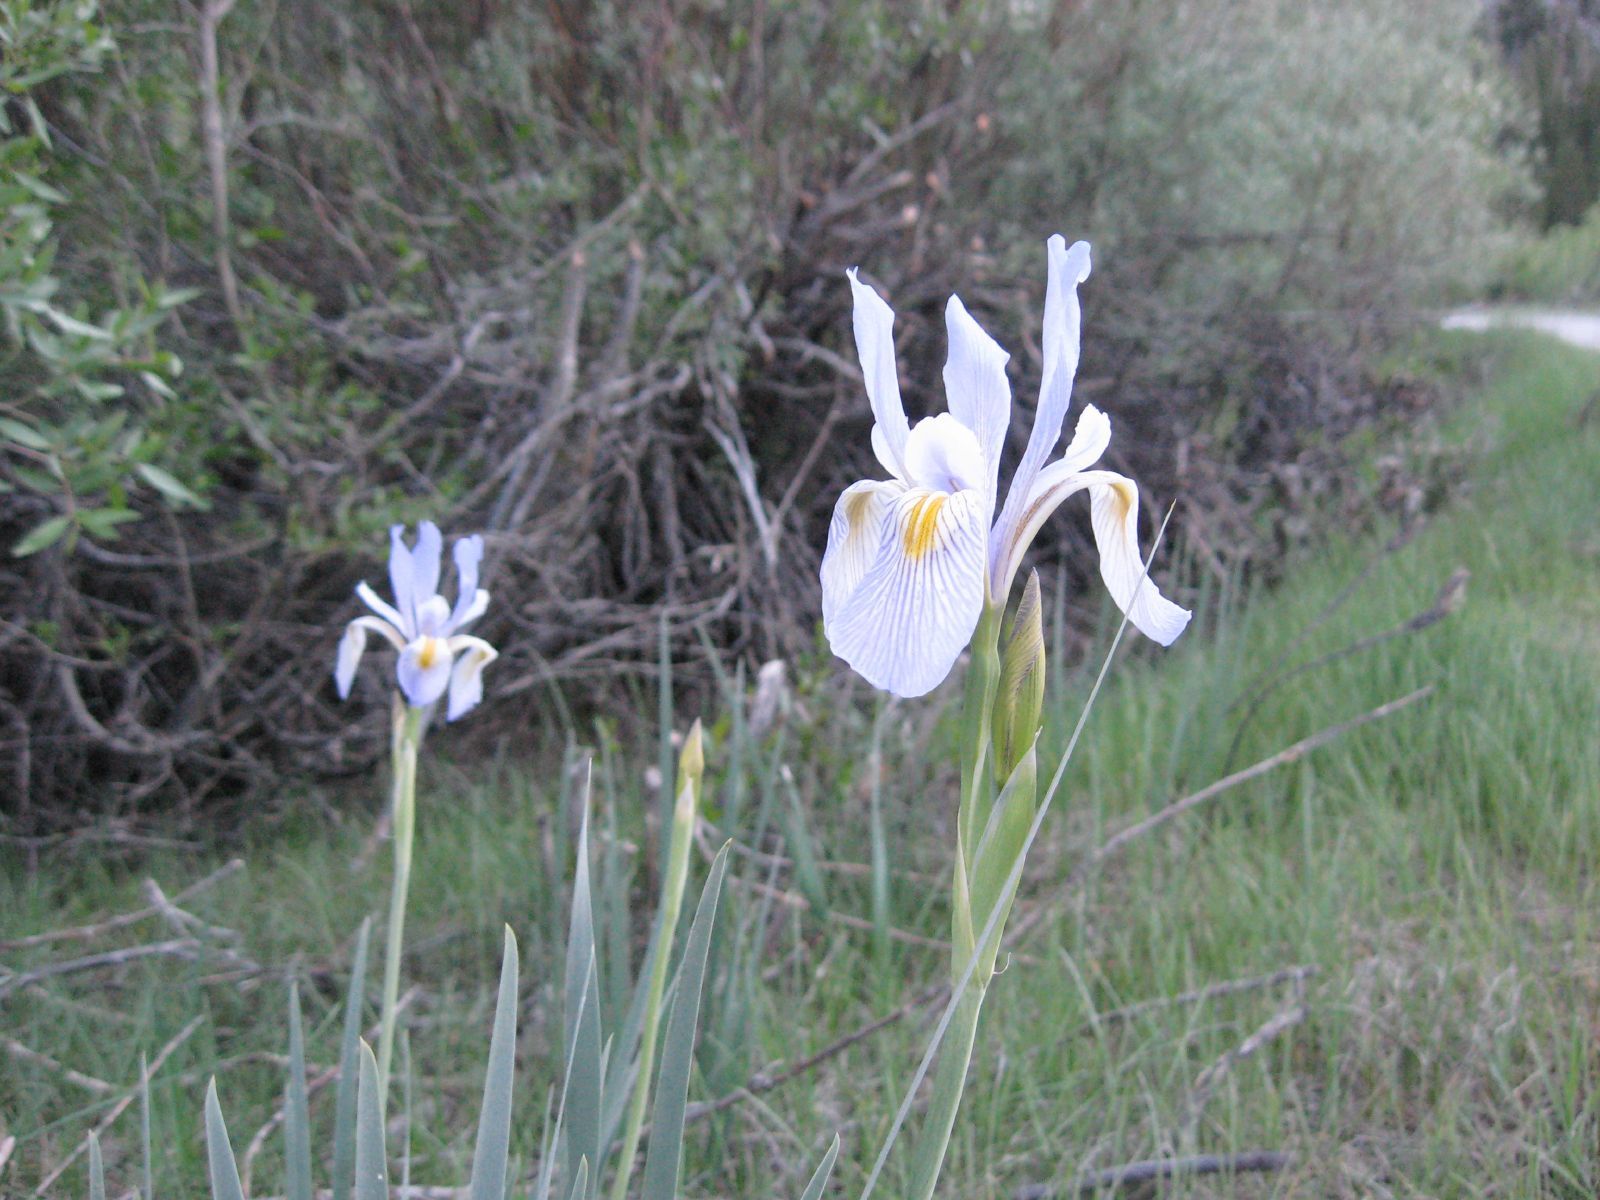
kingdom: Plantae
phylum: Tracheophyta
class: Liliopsida
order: Asparagales
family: Iridaceae
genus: Iris
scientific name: Iris missouriensis
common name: Rocky mountain iris
